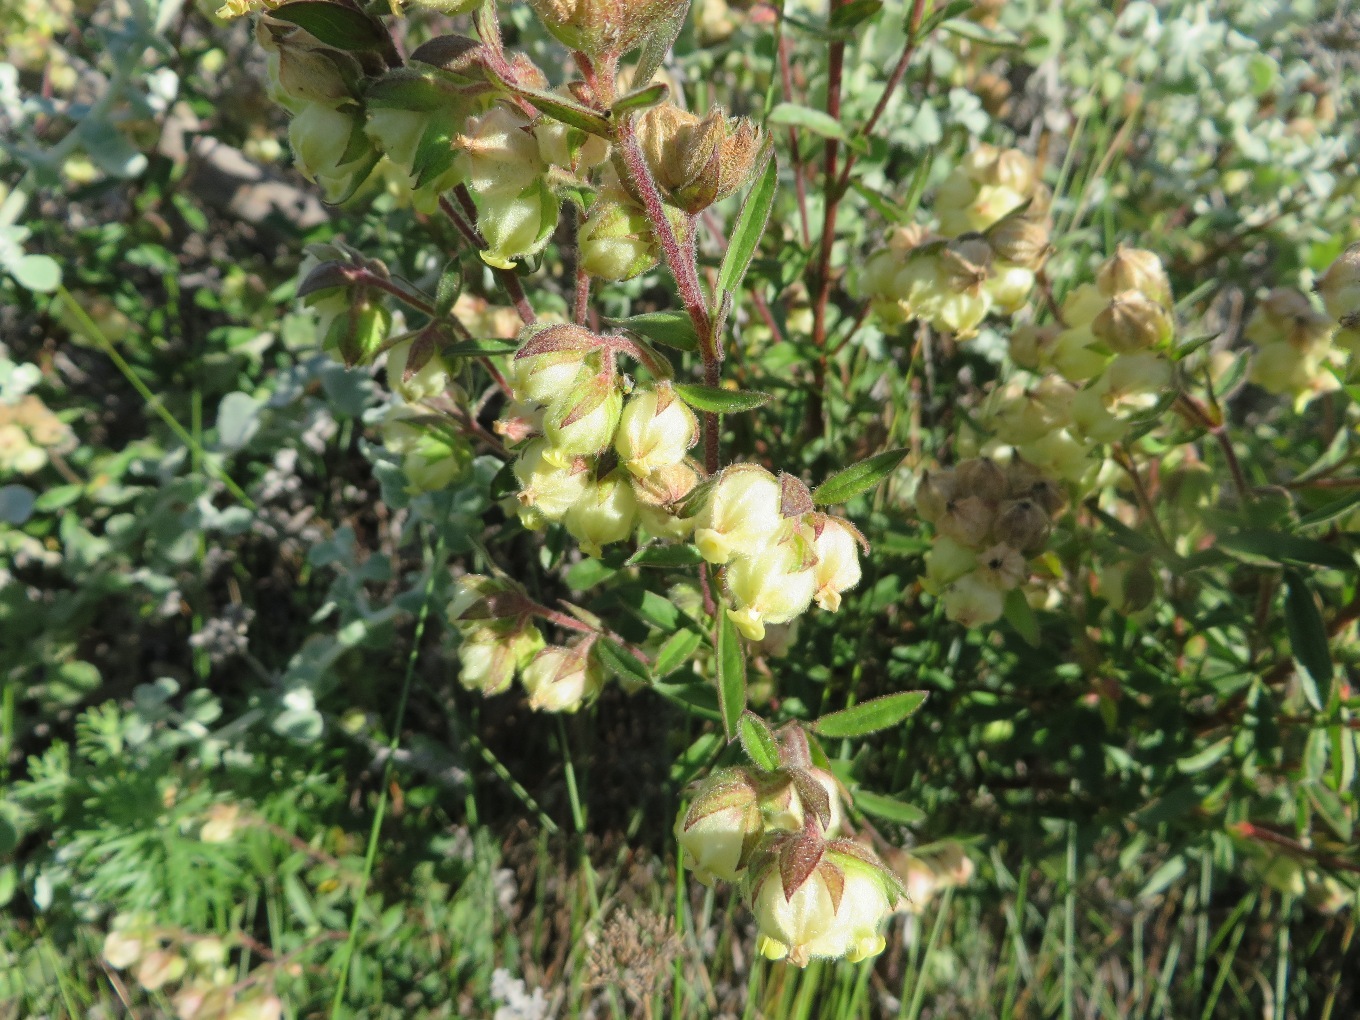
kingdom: Plantae
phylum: Tracheophyta
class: Magnoliopsida
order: Malvales
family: Malvaceae
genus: Hermannia
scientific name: Hermannia hyssopifolia
